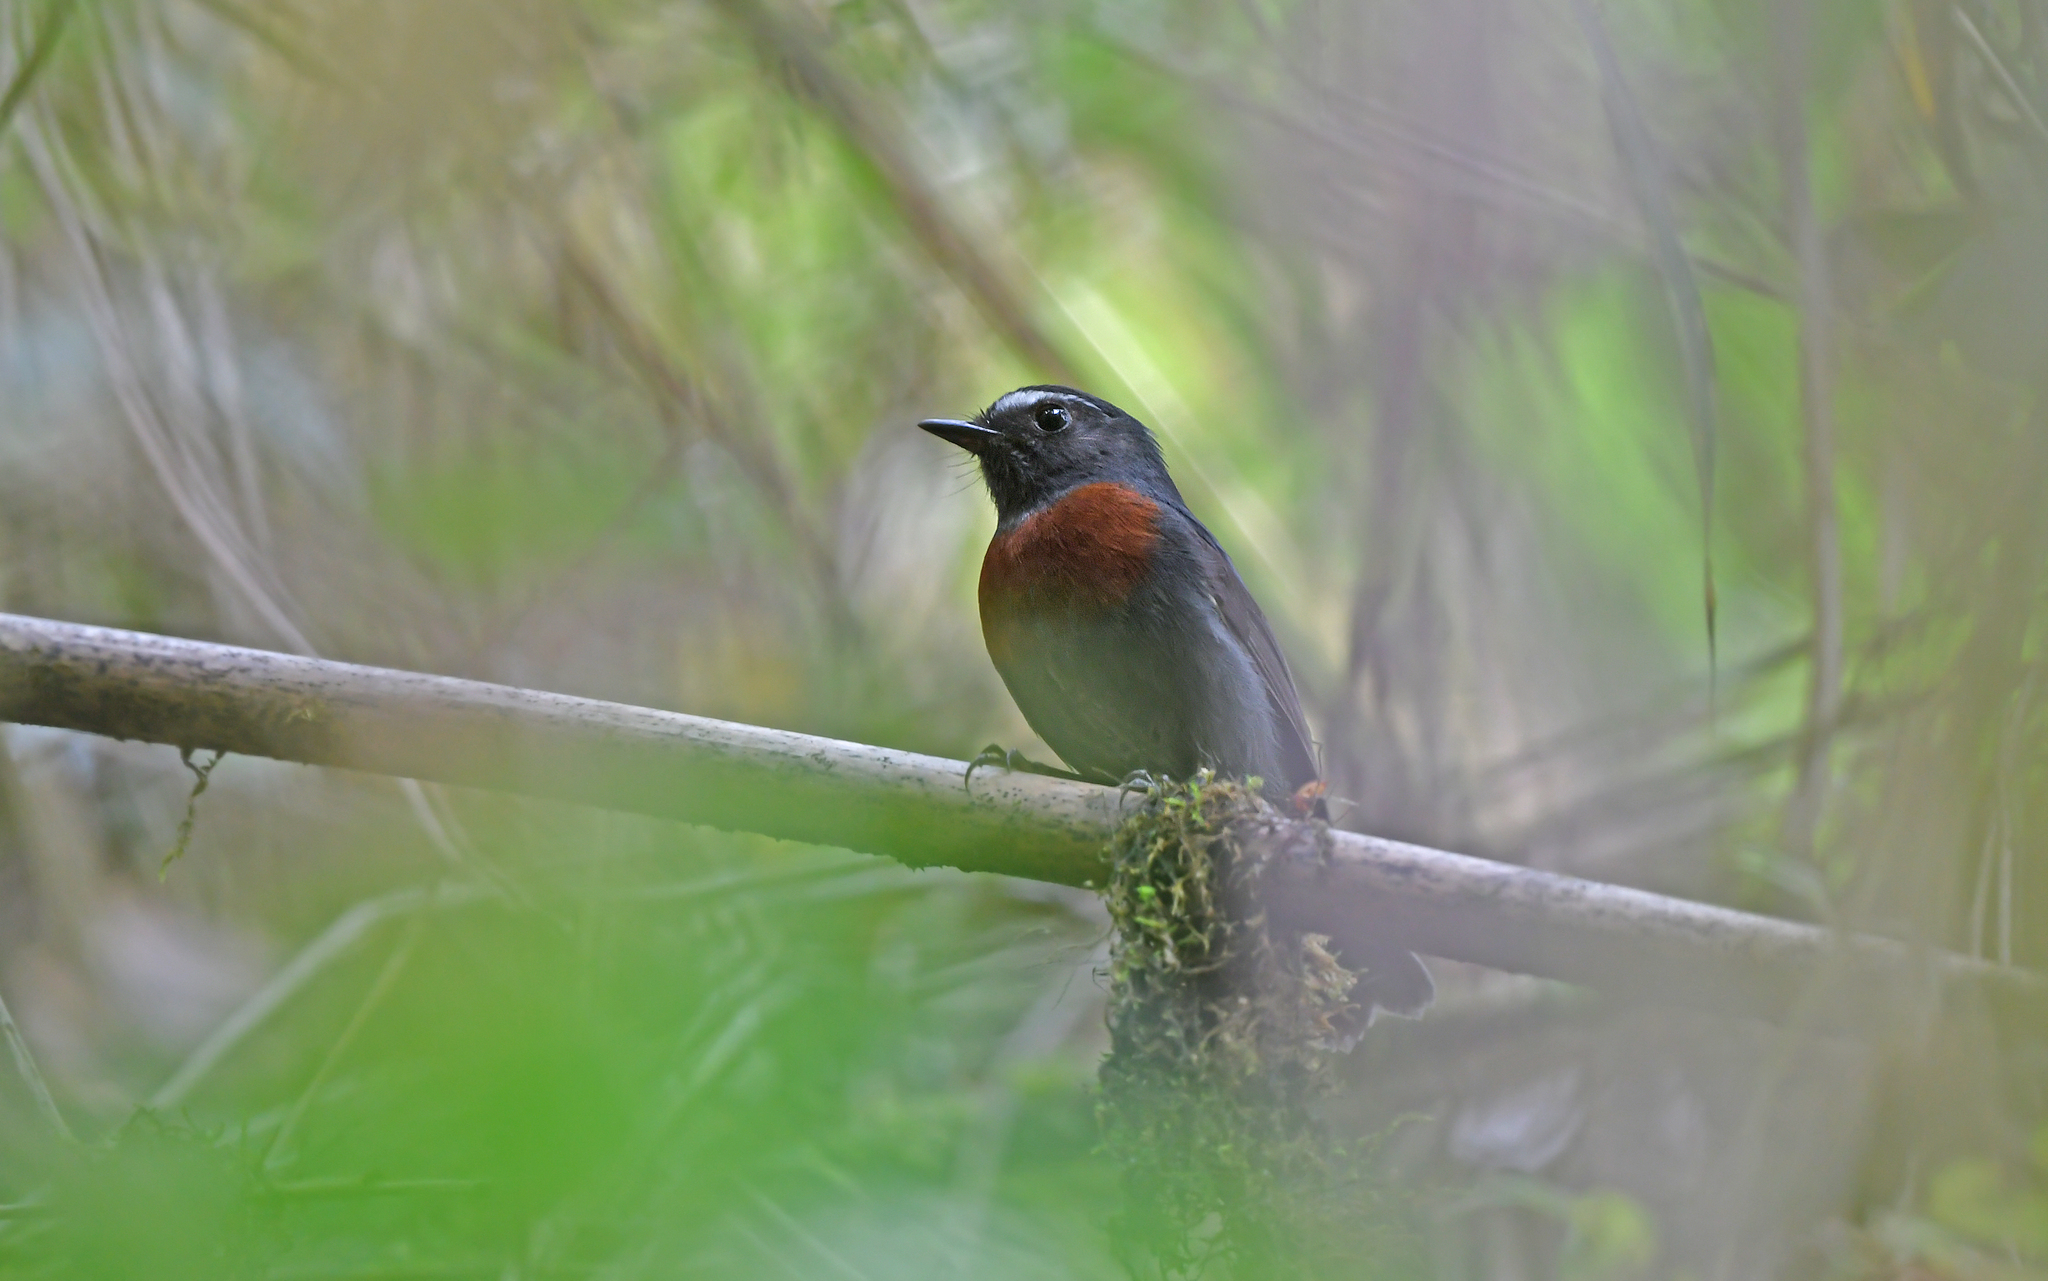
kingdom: Animalia
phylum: Chordata
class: Aves
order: Passeriformes
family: Tyrannidae
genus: Ochthoeca
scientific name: Ochthoeca thoracica
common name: Maroon-belted chat-tyrant
